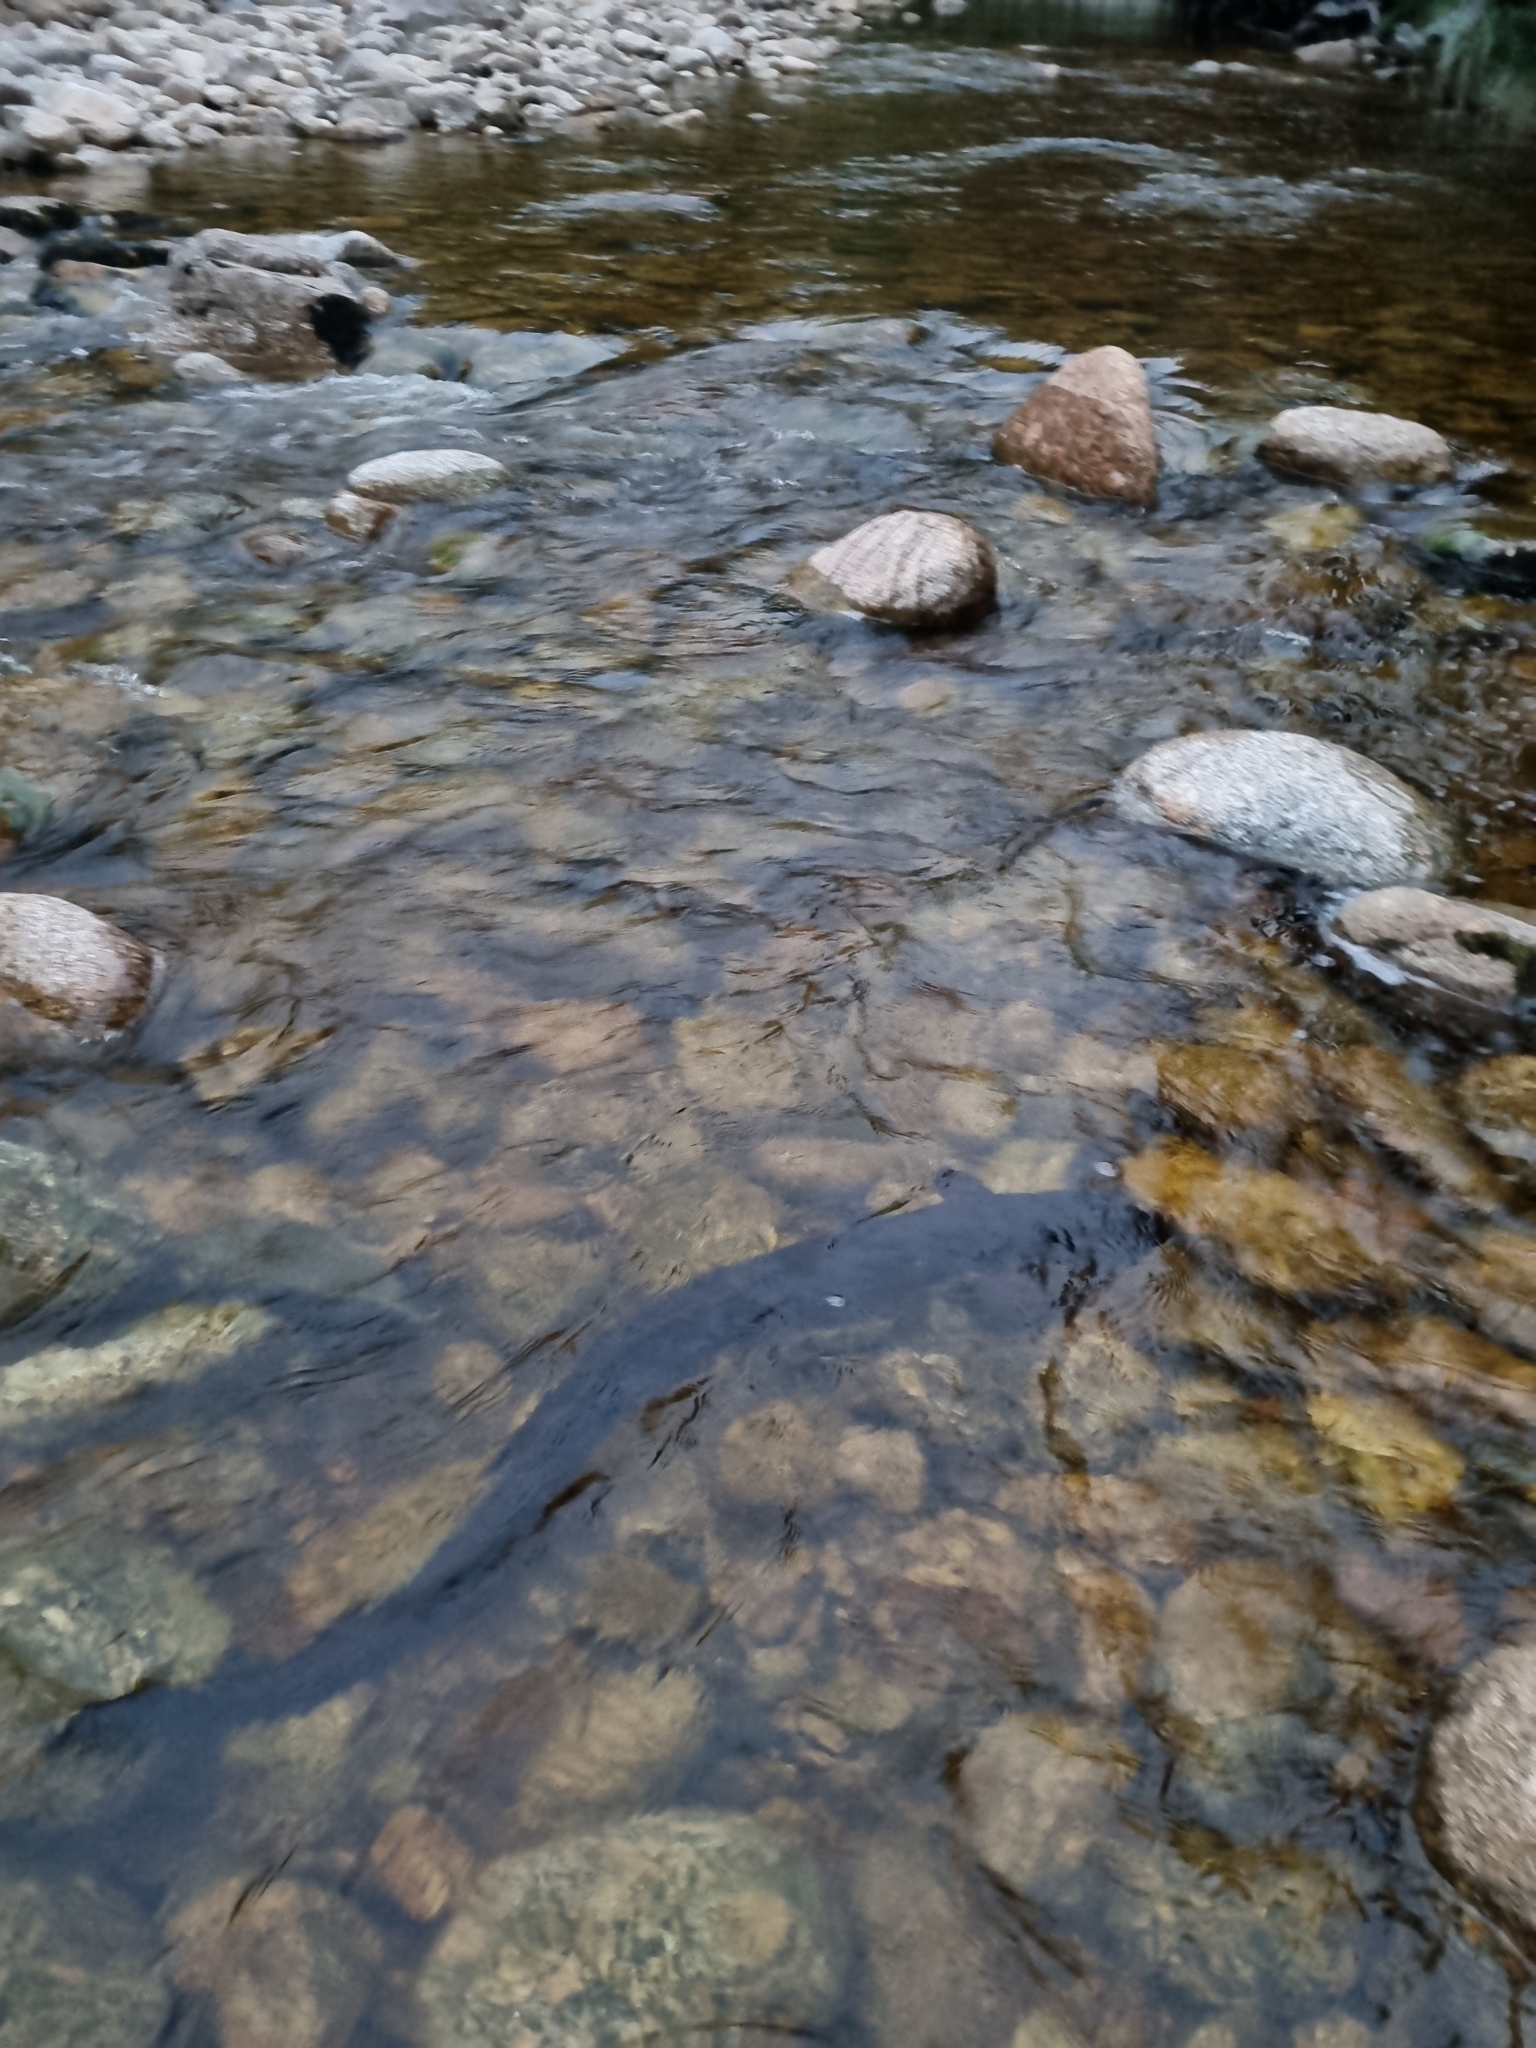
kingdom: Animalia
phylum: Chordata
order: Anguilliformes
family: Anguillidae
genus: Anguilla
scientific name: Anguilla dieffenbachii
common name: New zealand longfin eel
